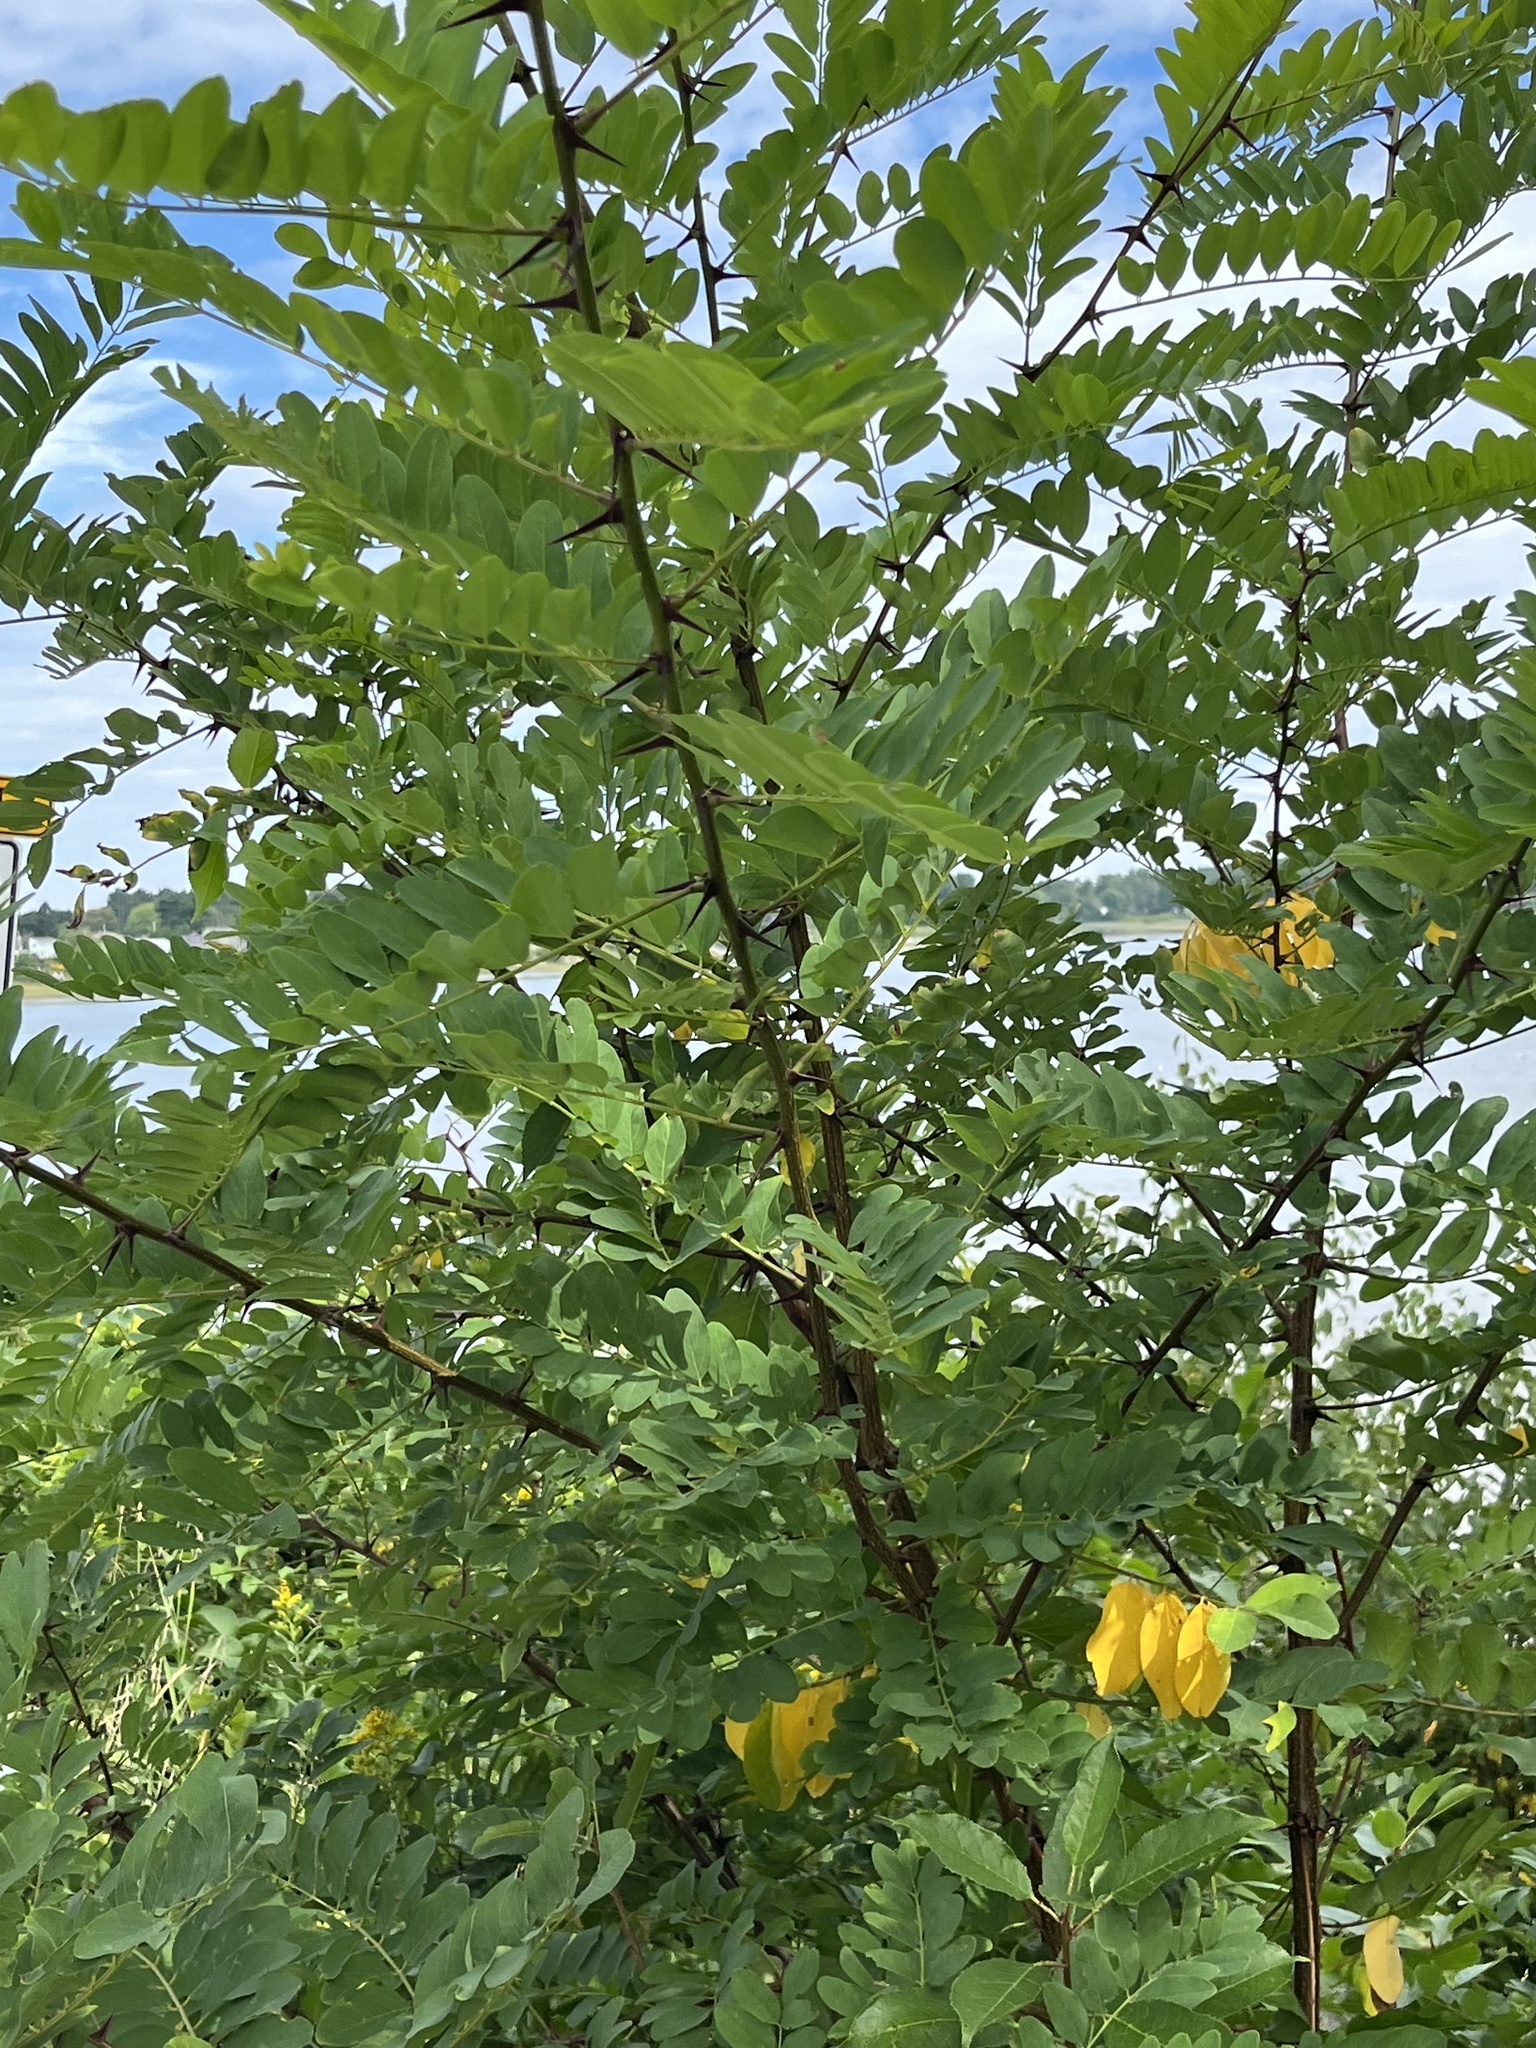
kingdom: Plantae
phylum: Tracheophyta
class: Magnoliopsida
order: Fabales
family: Fabaceae
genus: Robinia
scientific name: Robinia pseudoacacia
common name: Black locust
